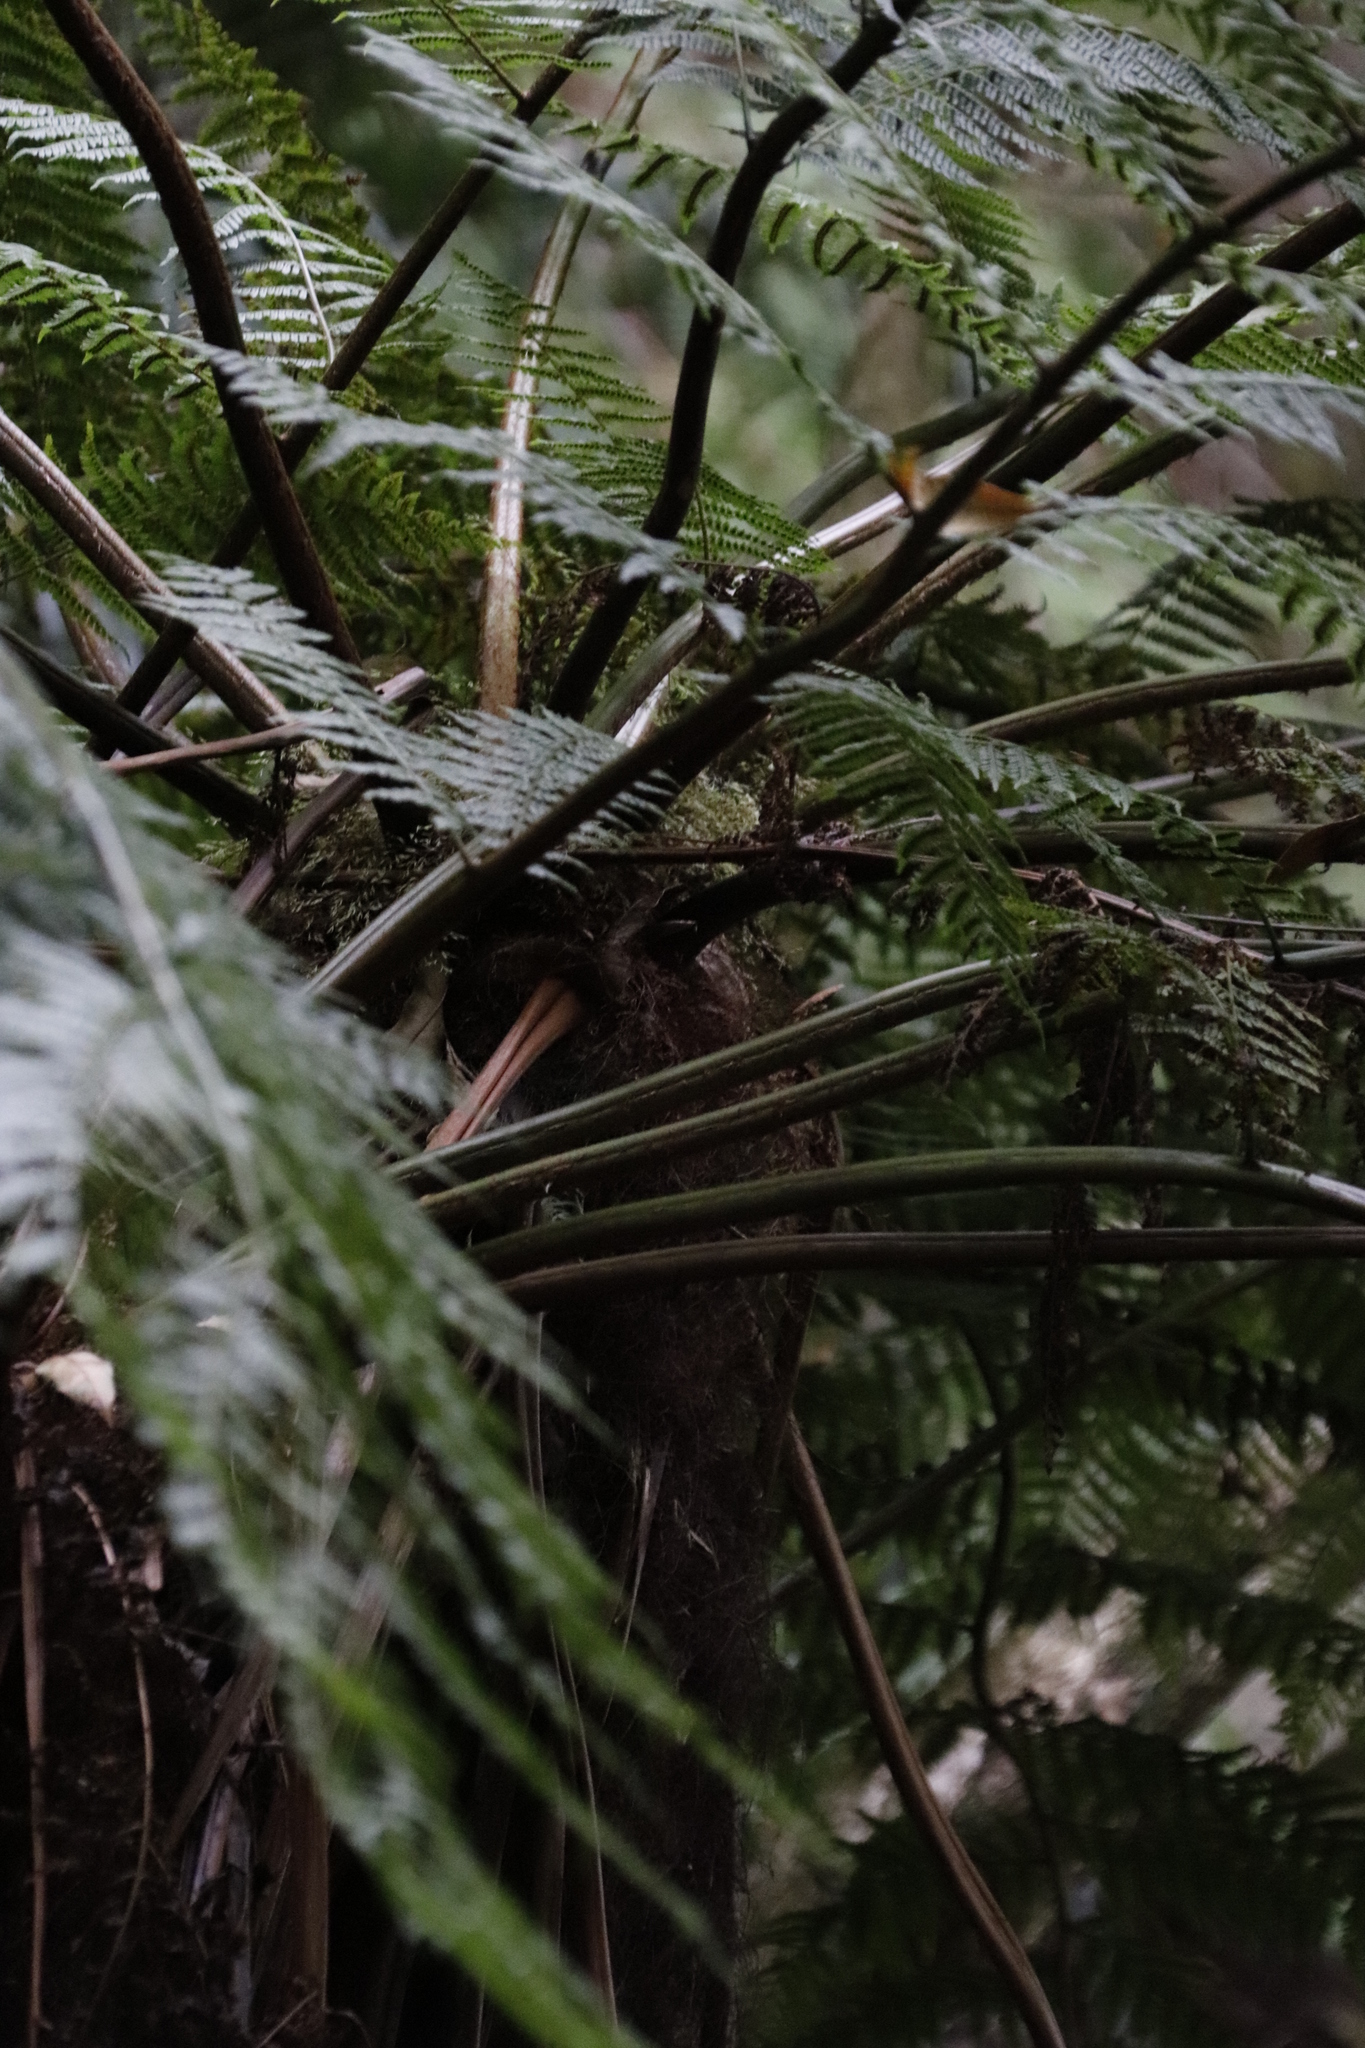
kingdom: Plantae
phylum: Tracheophyta
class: Polypodiopsida
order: Cyatheales
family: Cyatheaceae
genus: Gymnosphaera
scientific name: Gymnosphaera capensis
